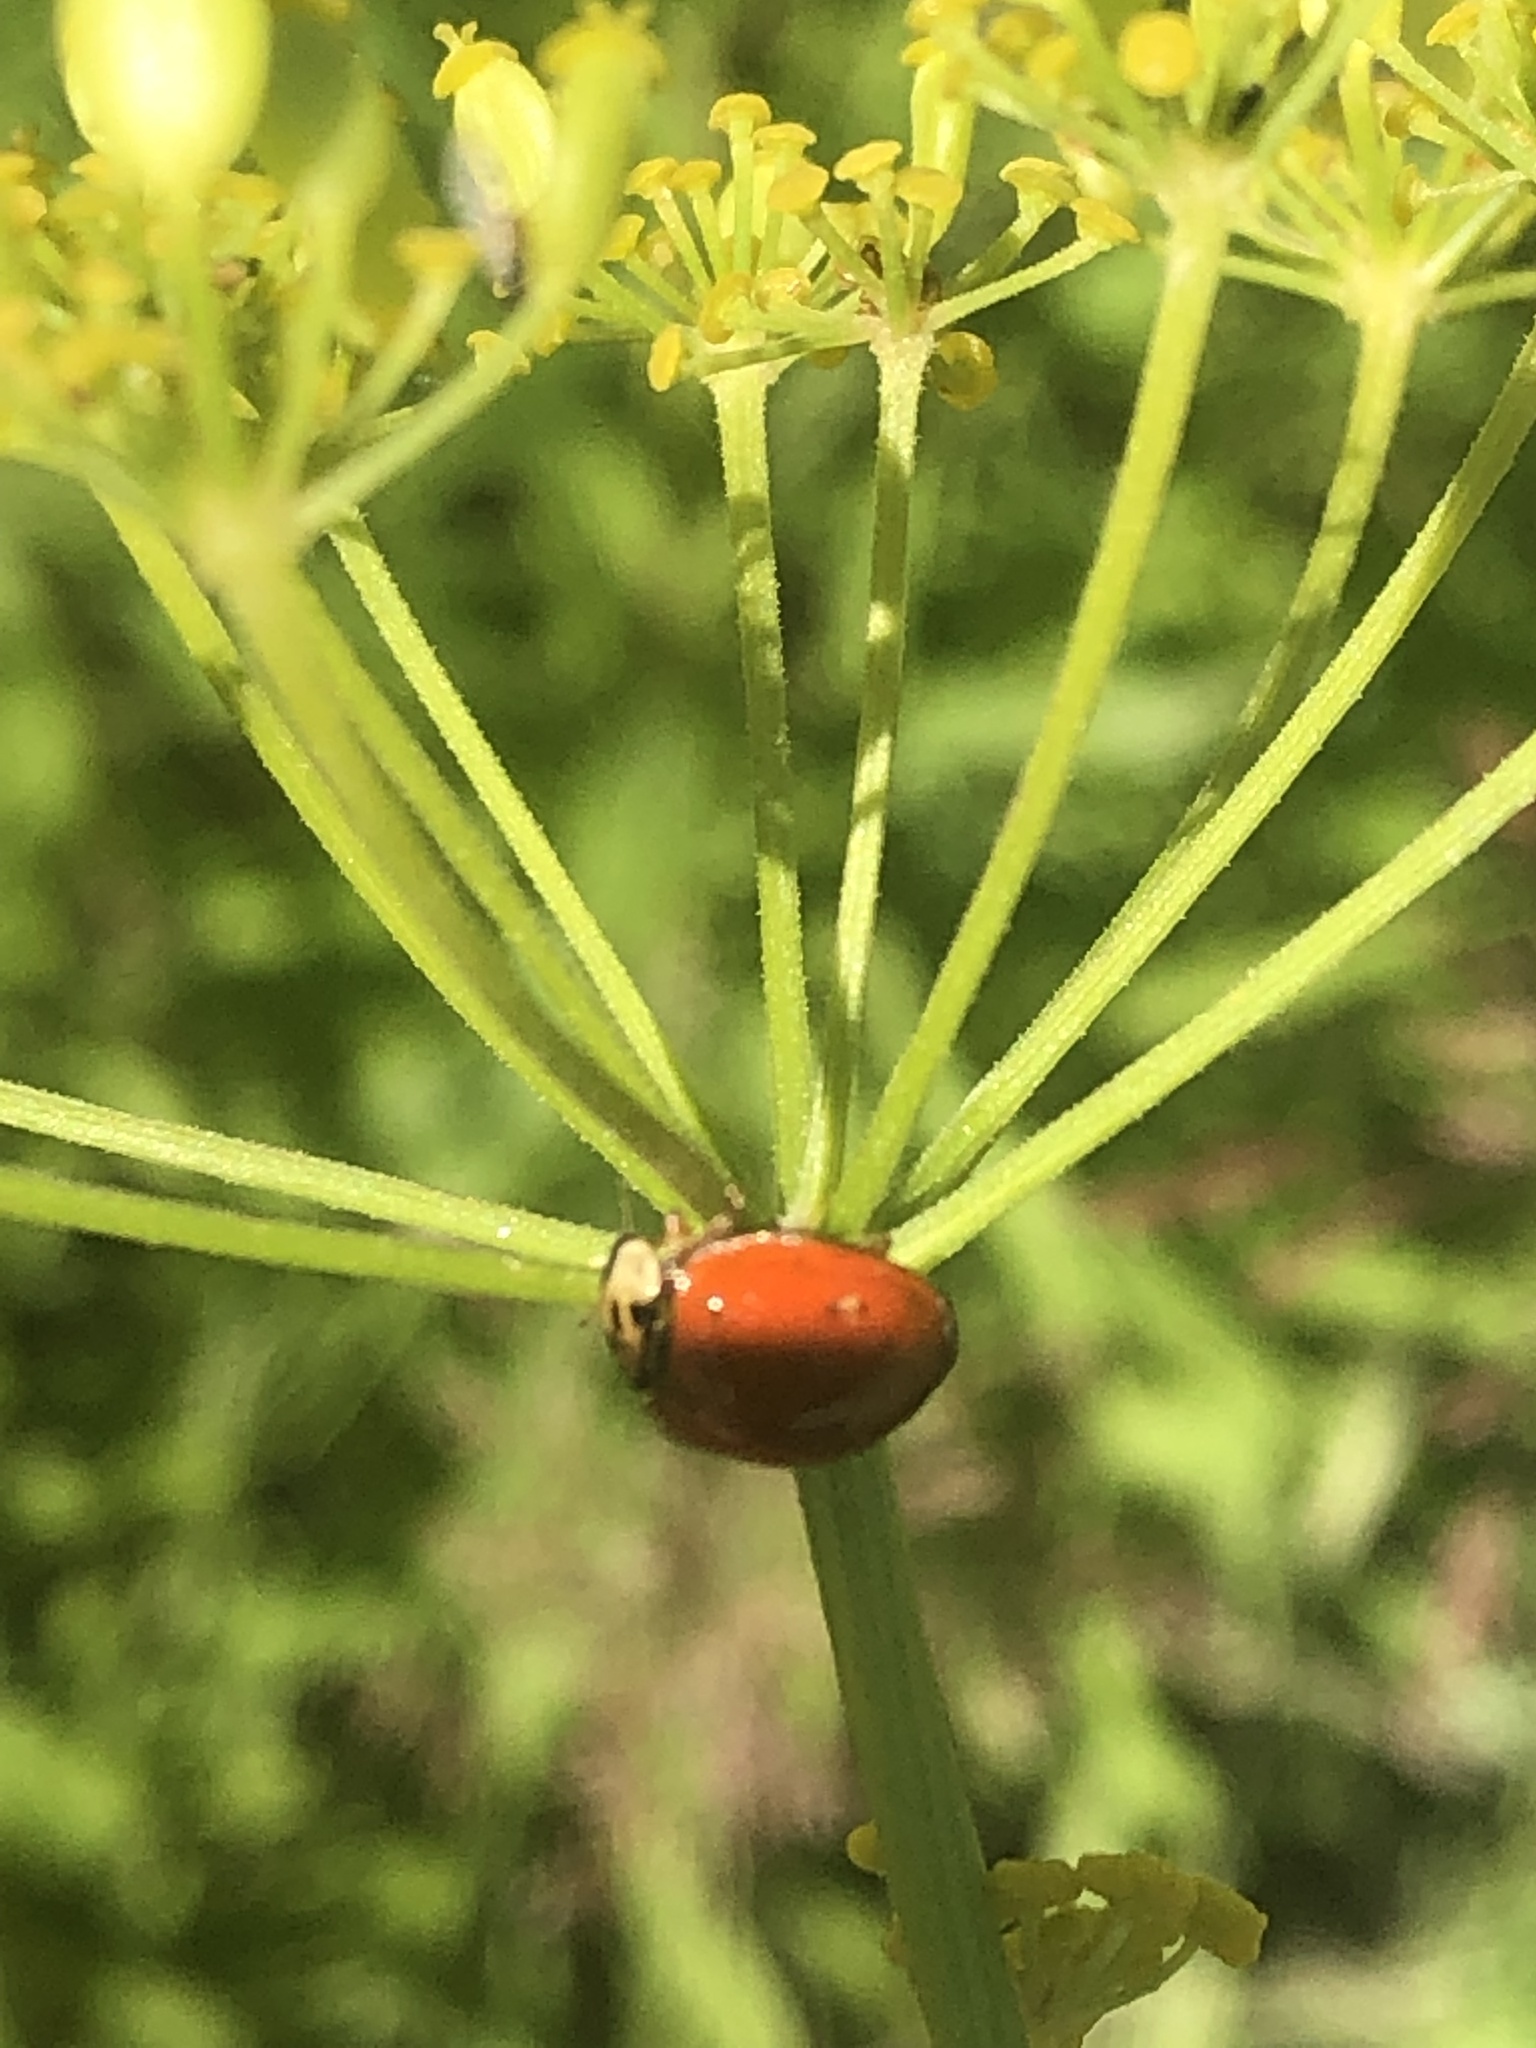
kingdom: Animalia
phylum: Arthropoda
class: Insecta
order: Coleoptera
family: Coccinellidae
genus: Harmonia
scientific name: Harmonia axyridis
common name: Harlequin ladybird
